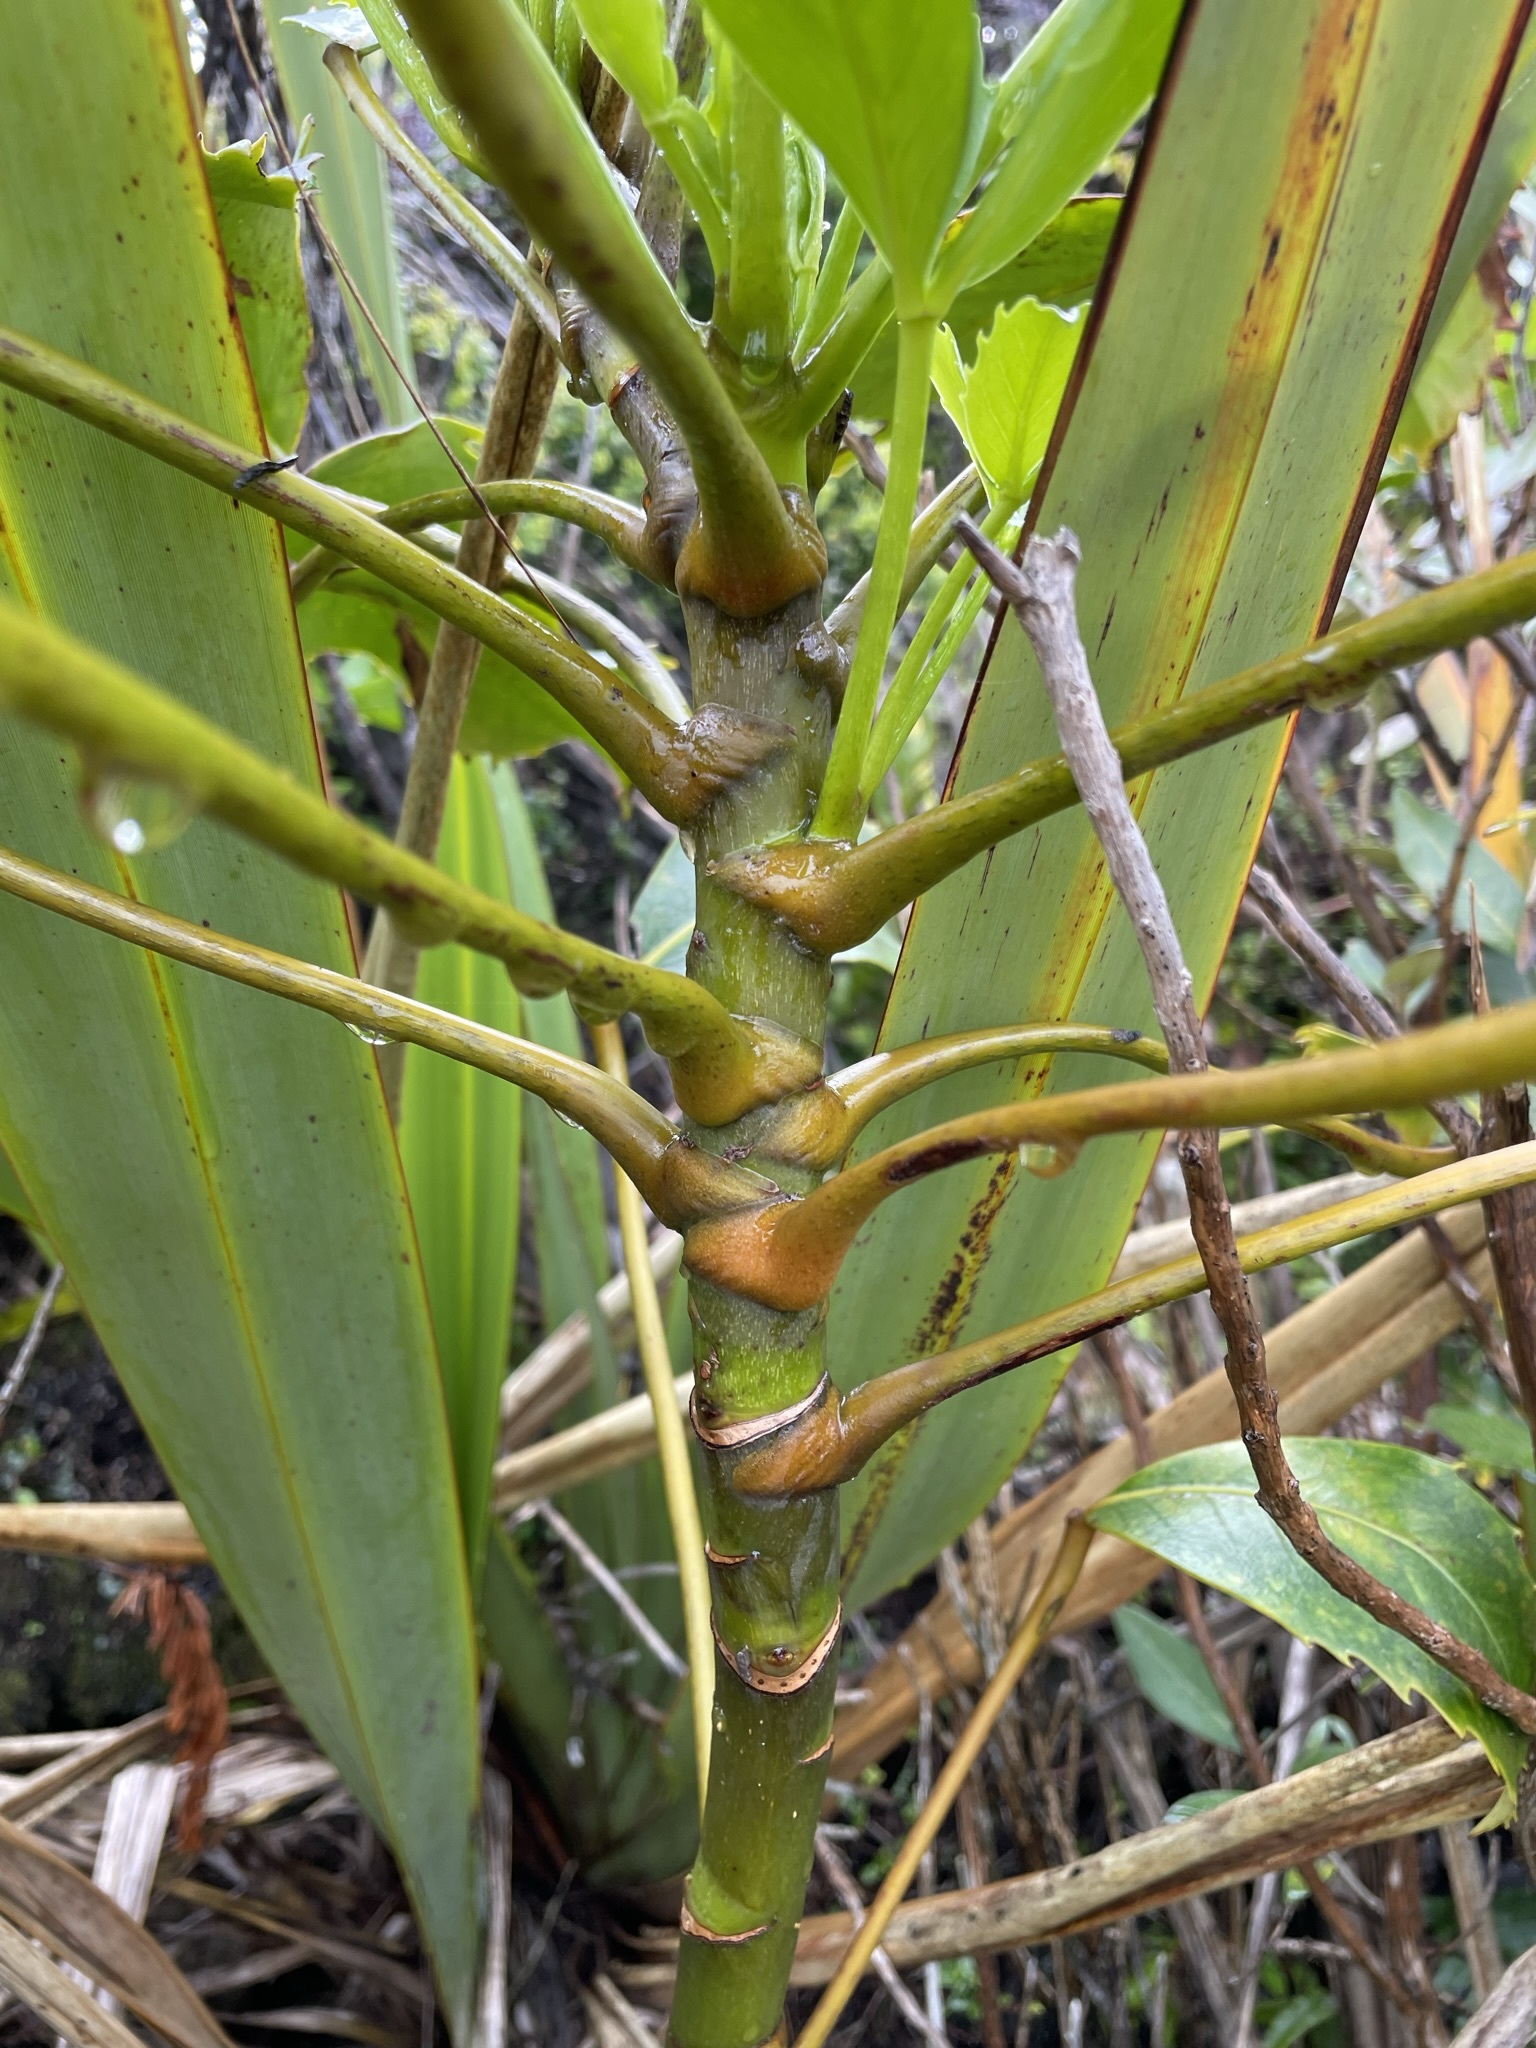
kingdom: Plantae
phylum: Tracheophyta
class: Magnoliopsida
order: Apiales
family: Araliaceae
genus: Neopanax
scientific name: Neopanax colensoi
